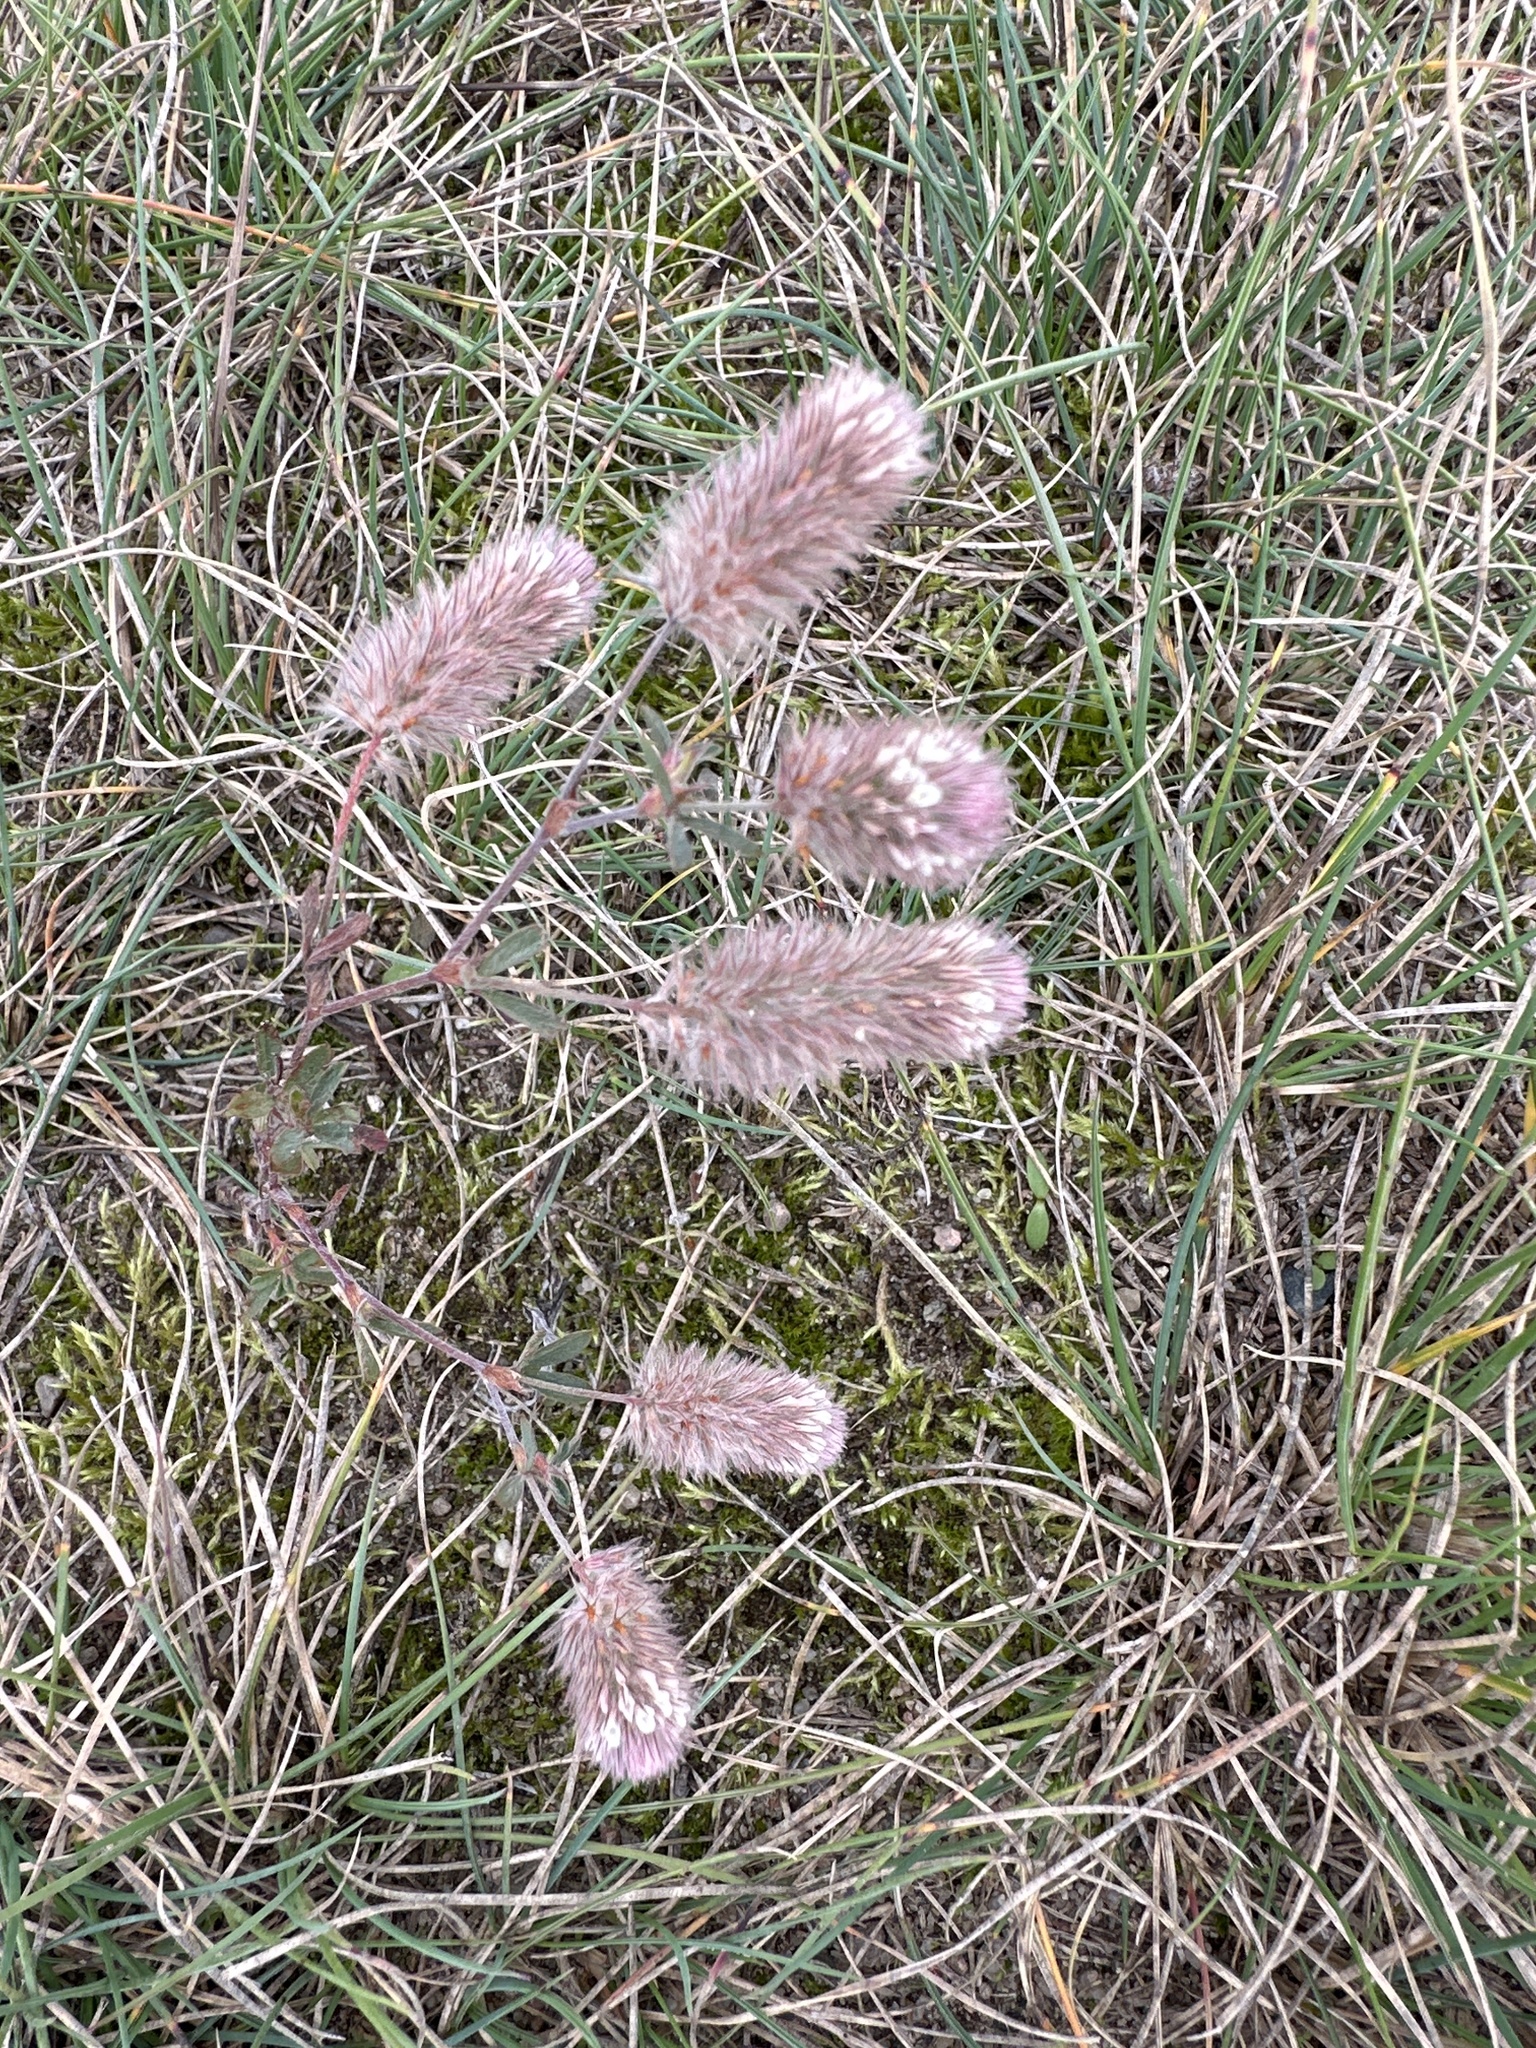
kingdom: Plantae
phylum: Tracheophyta
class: Magnoliopsida
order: Fabales
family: Fabaceae
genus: Trifolium
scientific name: Trifolium arvense
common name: Hare's-foot clover
